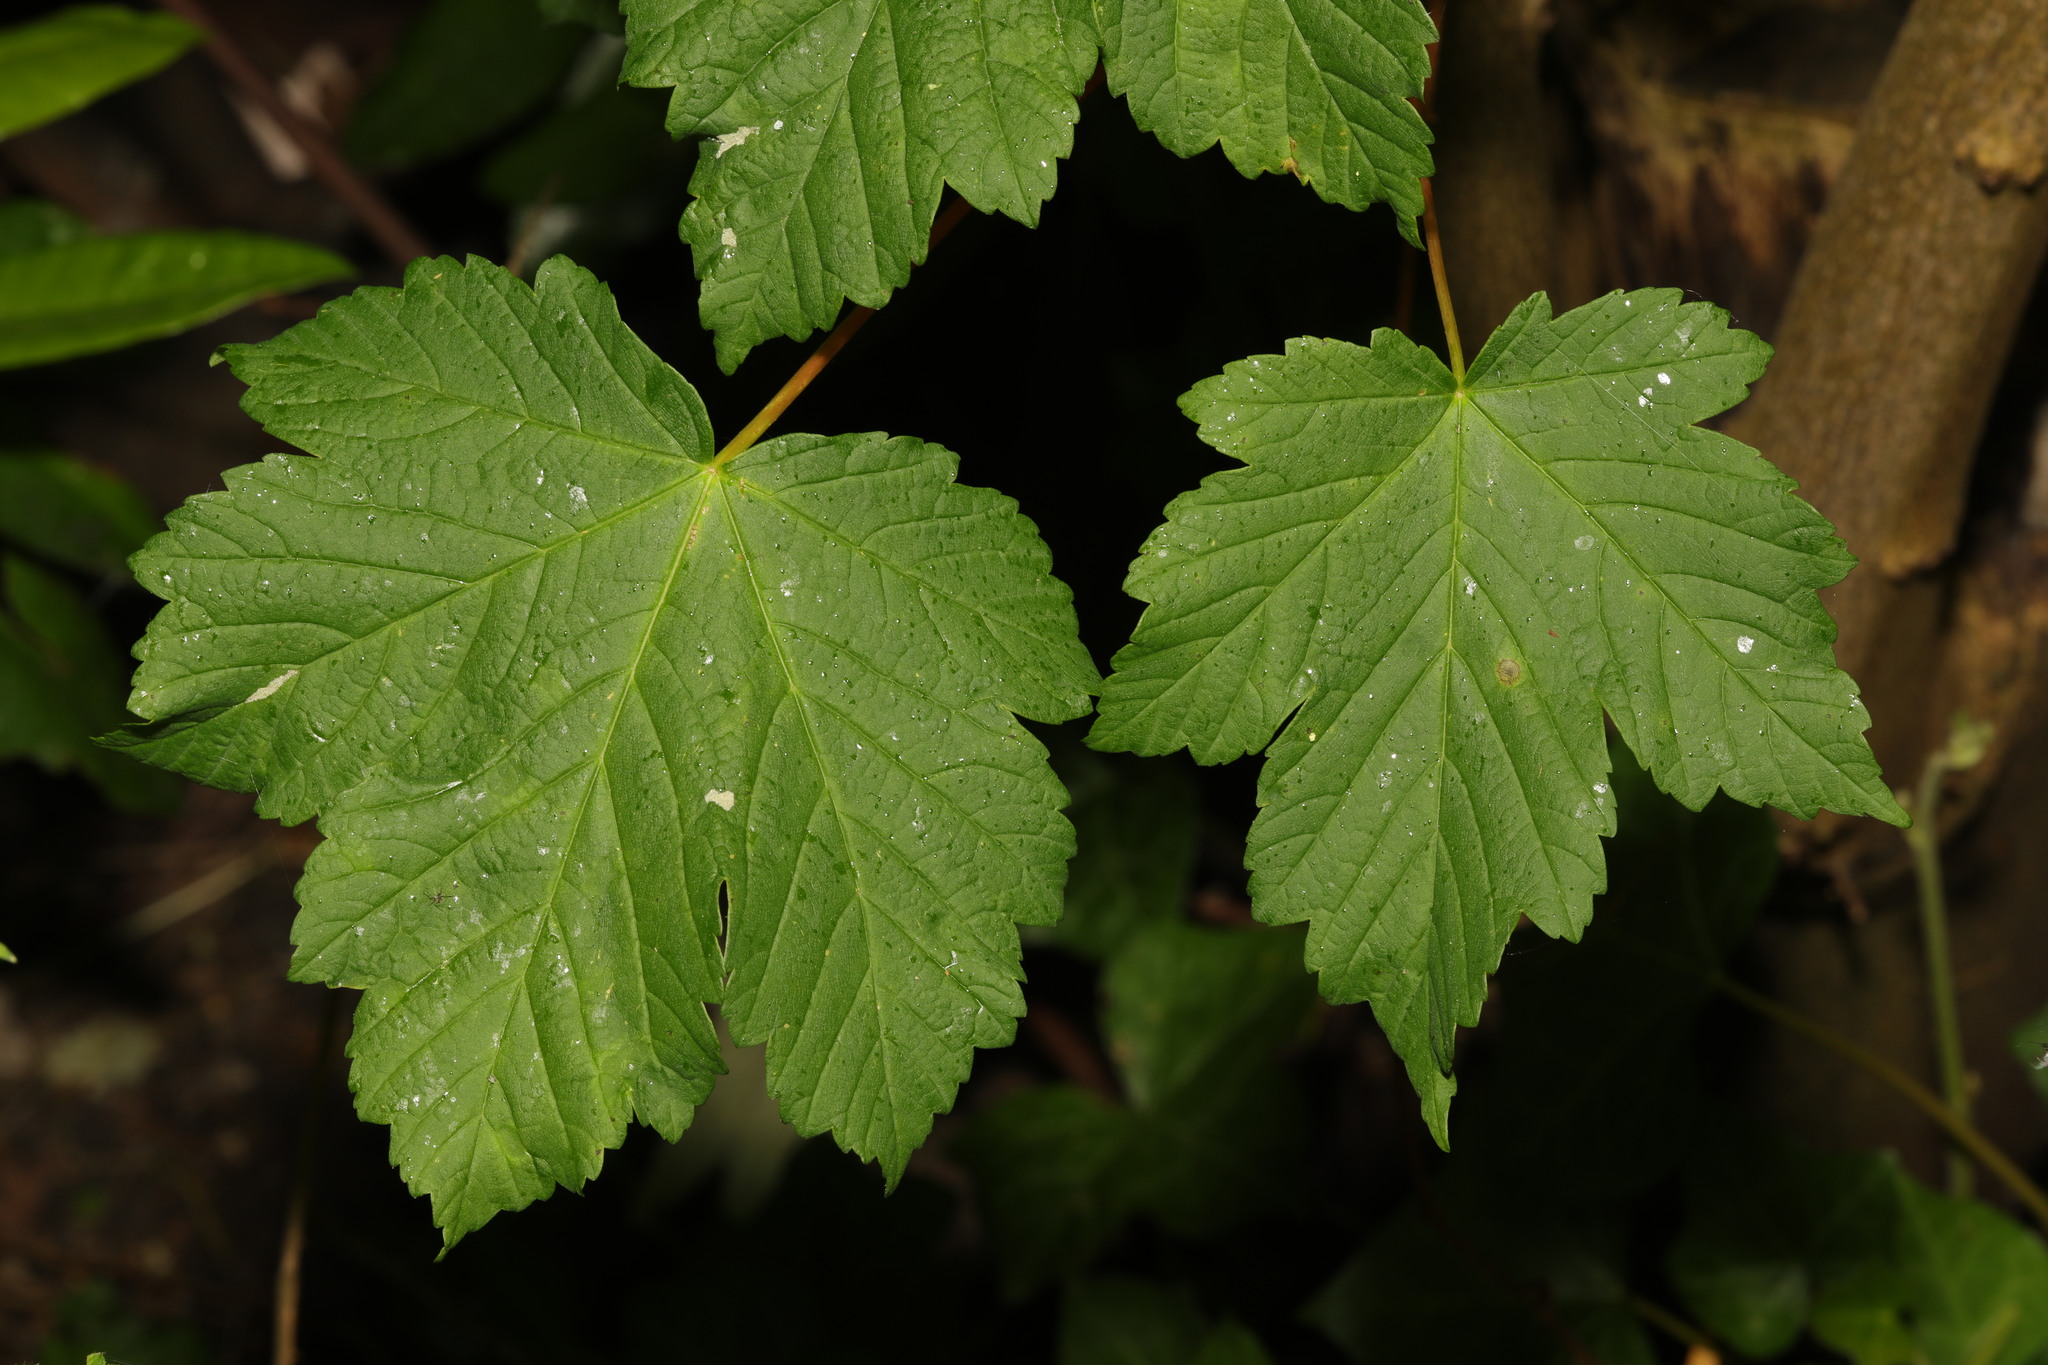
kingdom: Plantae
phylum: Tracheophyta
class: Magnoliopsida
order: Sapindales
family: Sapindaceae
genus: Acer
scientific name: Acer pseudoplatanus
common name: Sycamore
